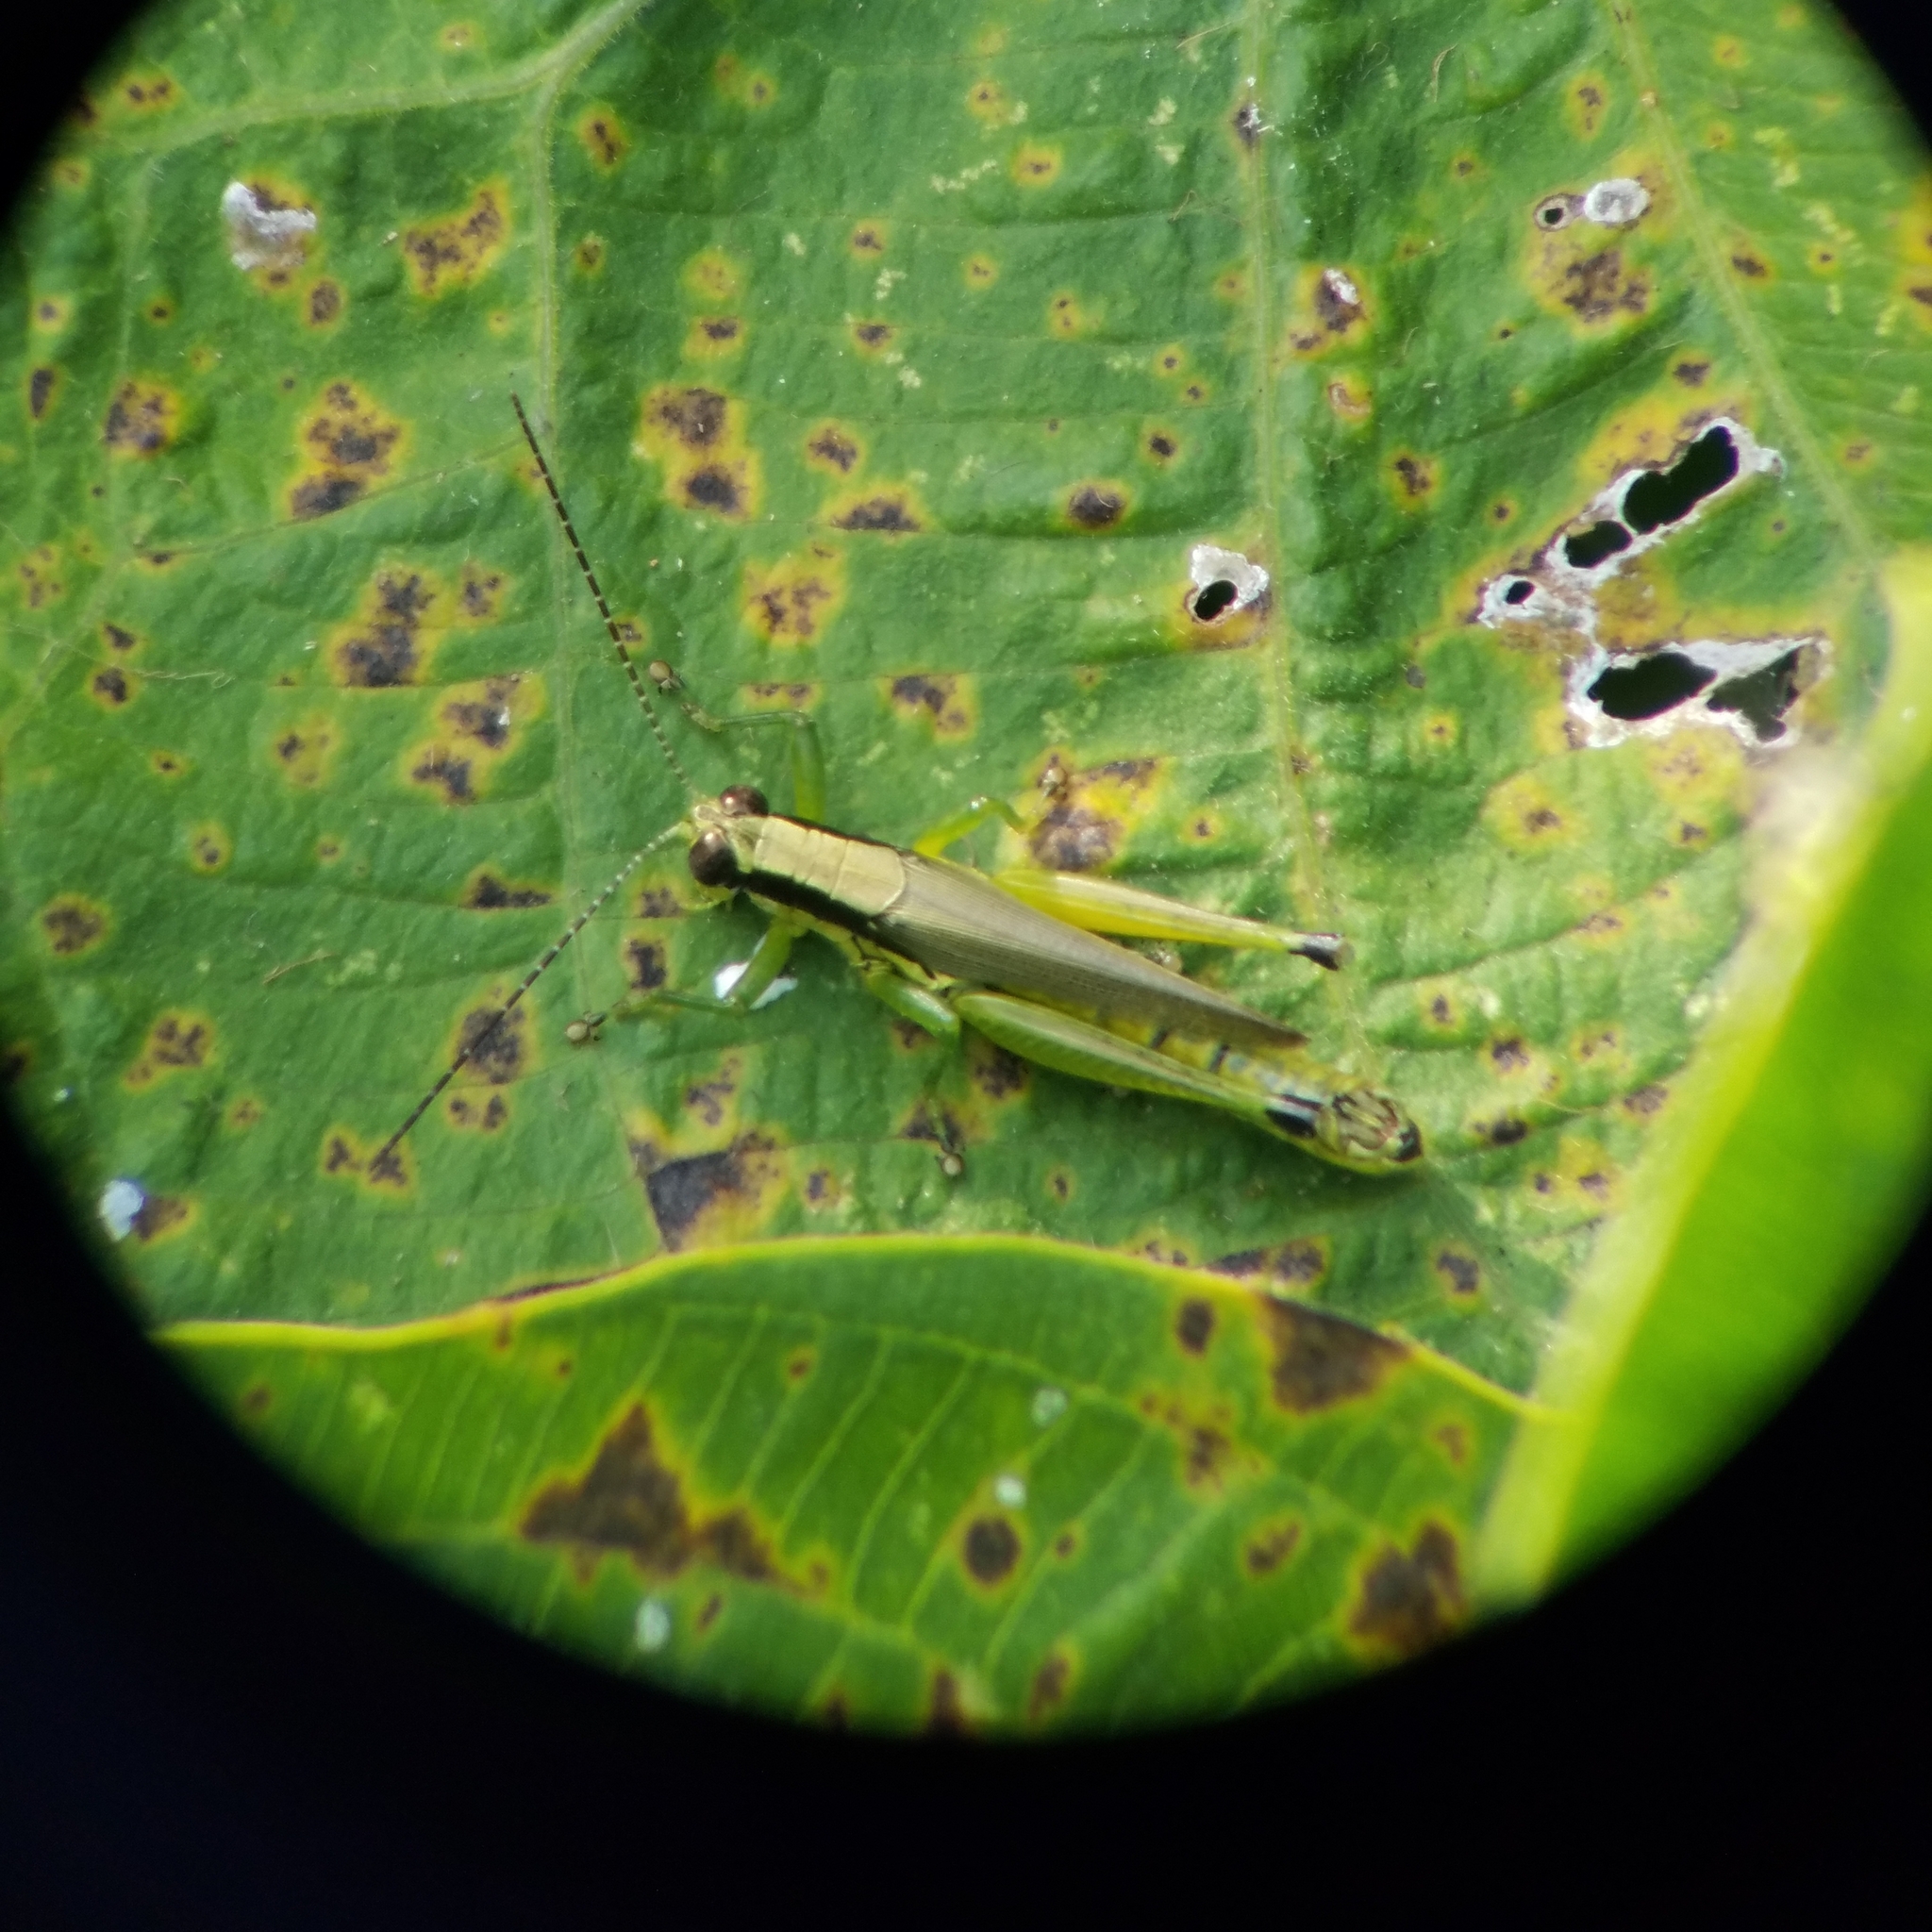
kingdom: Animalia
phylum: Arthropoda
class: Insecta
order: Orthoptera
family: Acrididae
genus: Paroxya
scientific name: Paroxya clavuligera
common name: Olive-green swamp grasshopper
